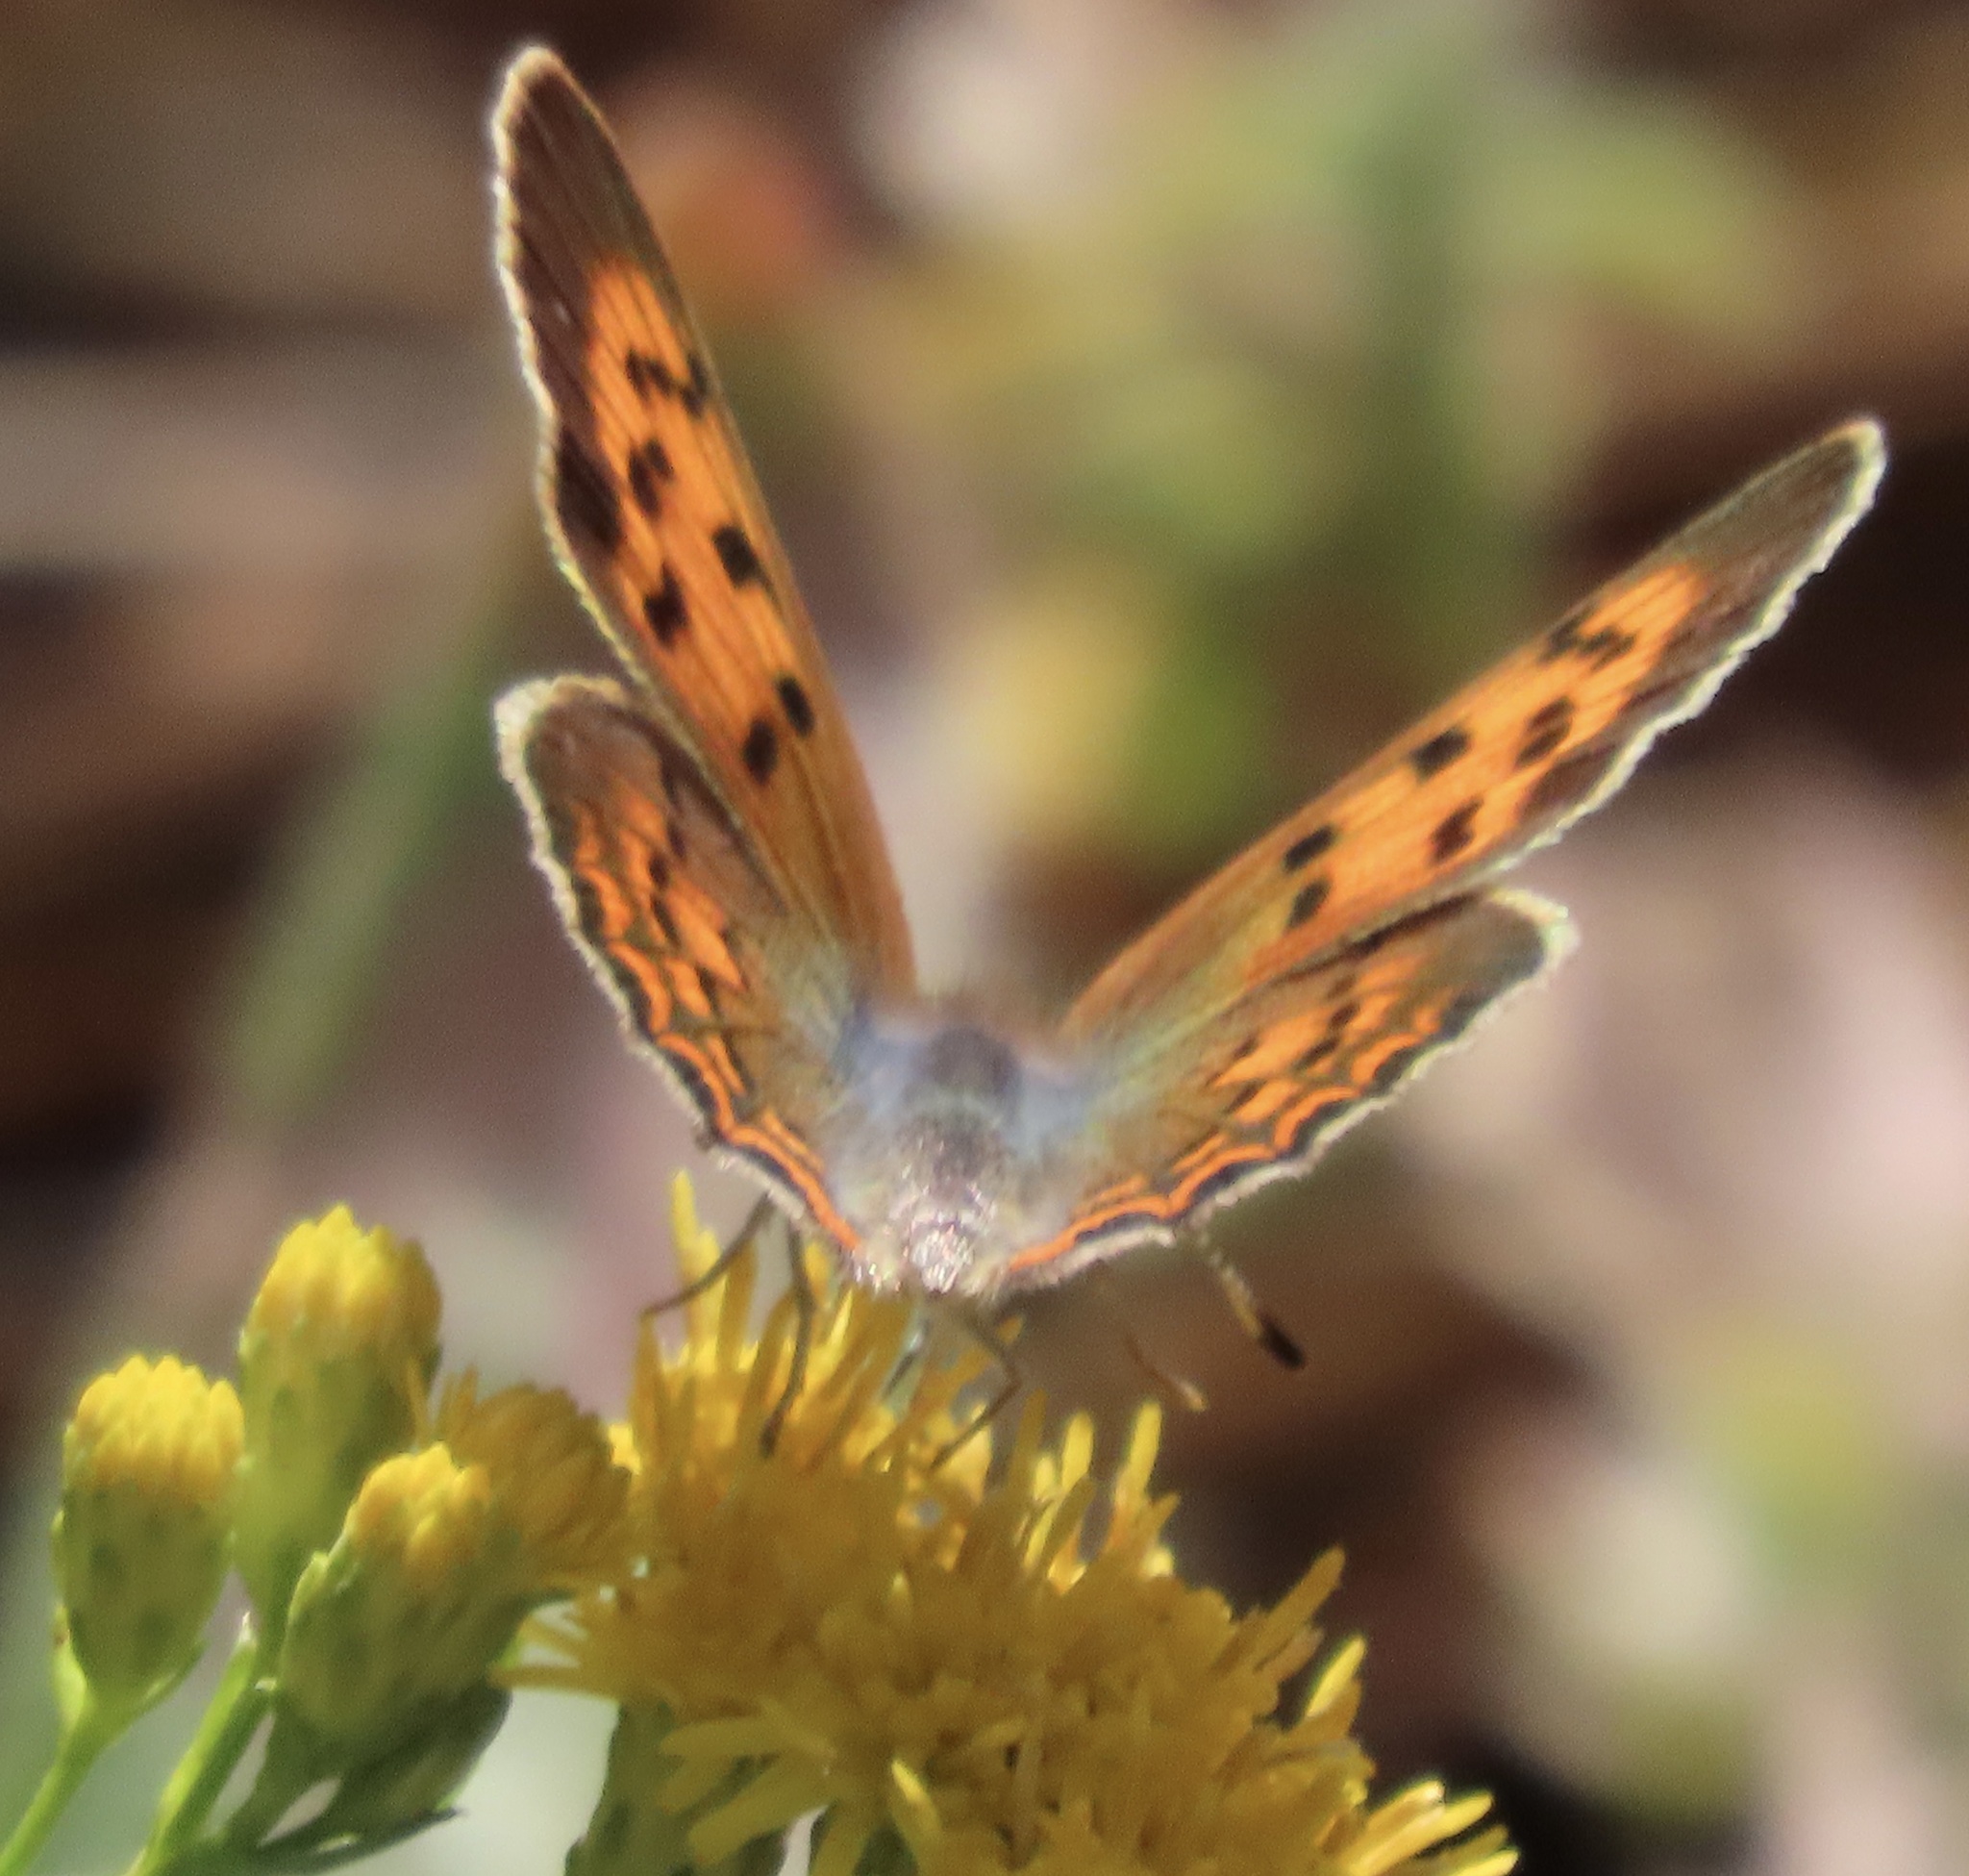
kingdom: Animalia
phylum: Arthropoda
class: Insecta
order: Lepidoptera
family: Lycaenidae
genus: Tharsalea
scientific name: Tharsalea helloides
